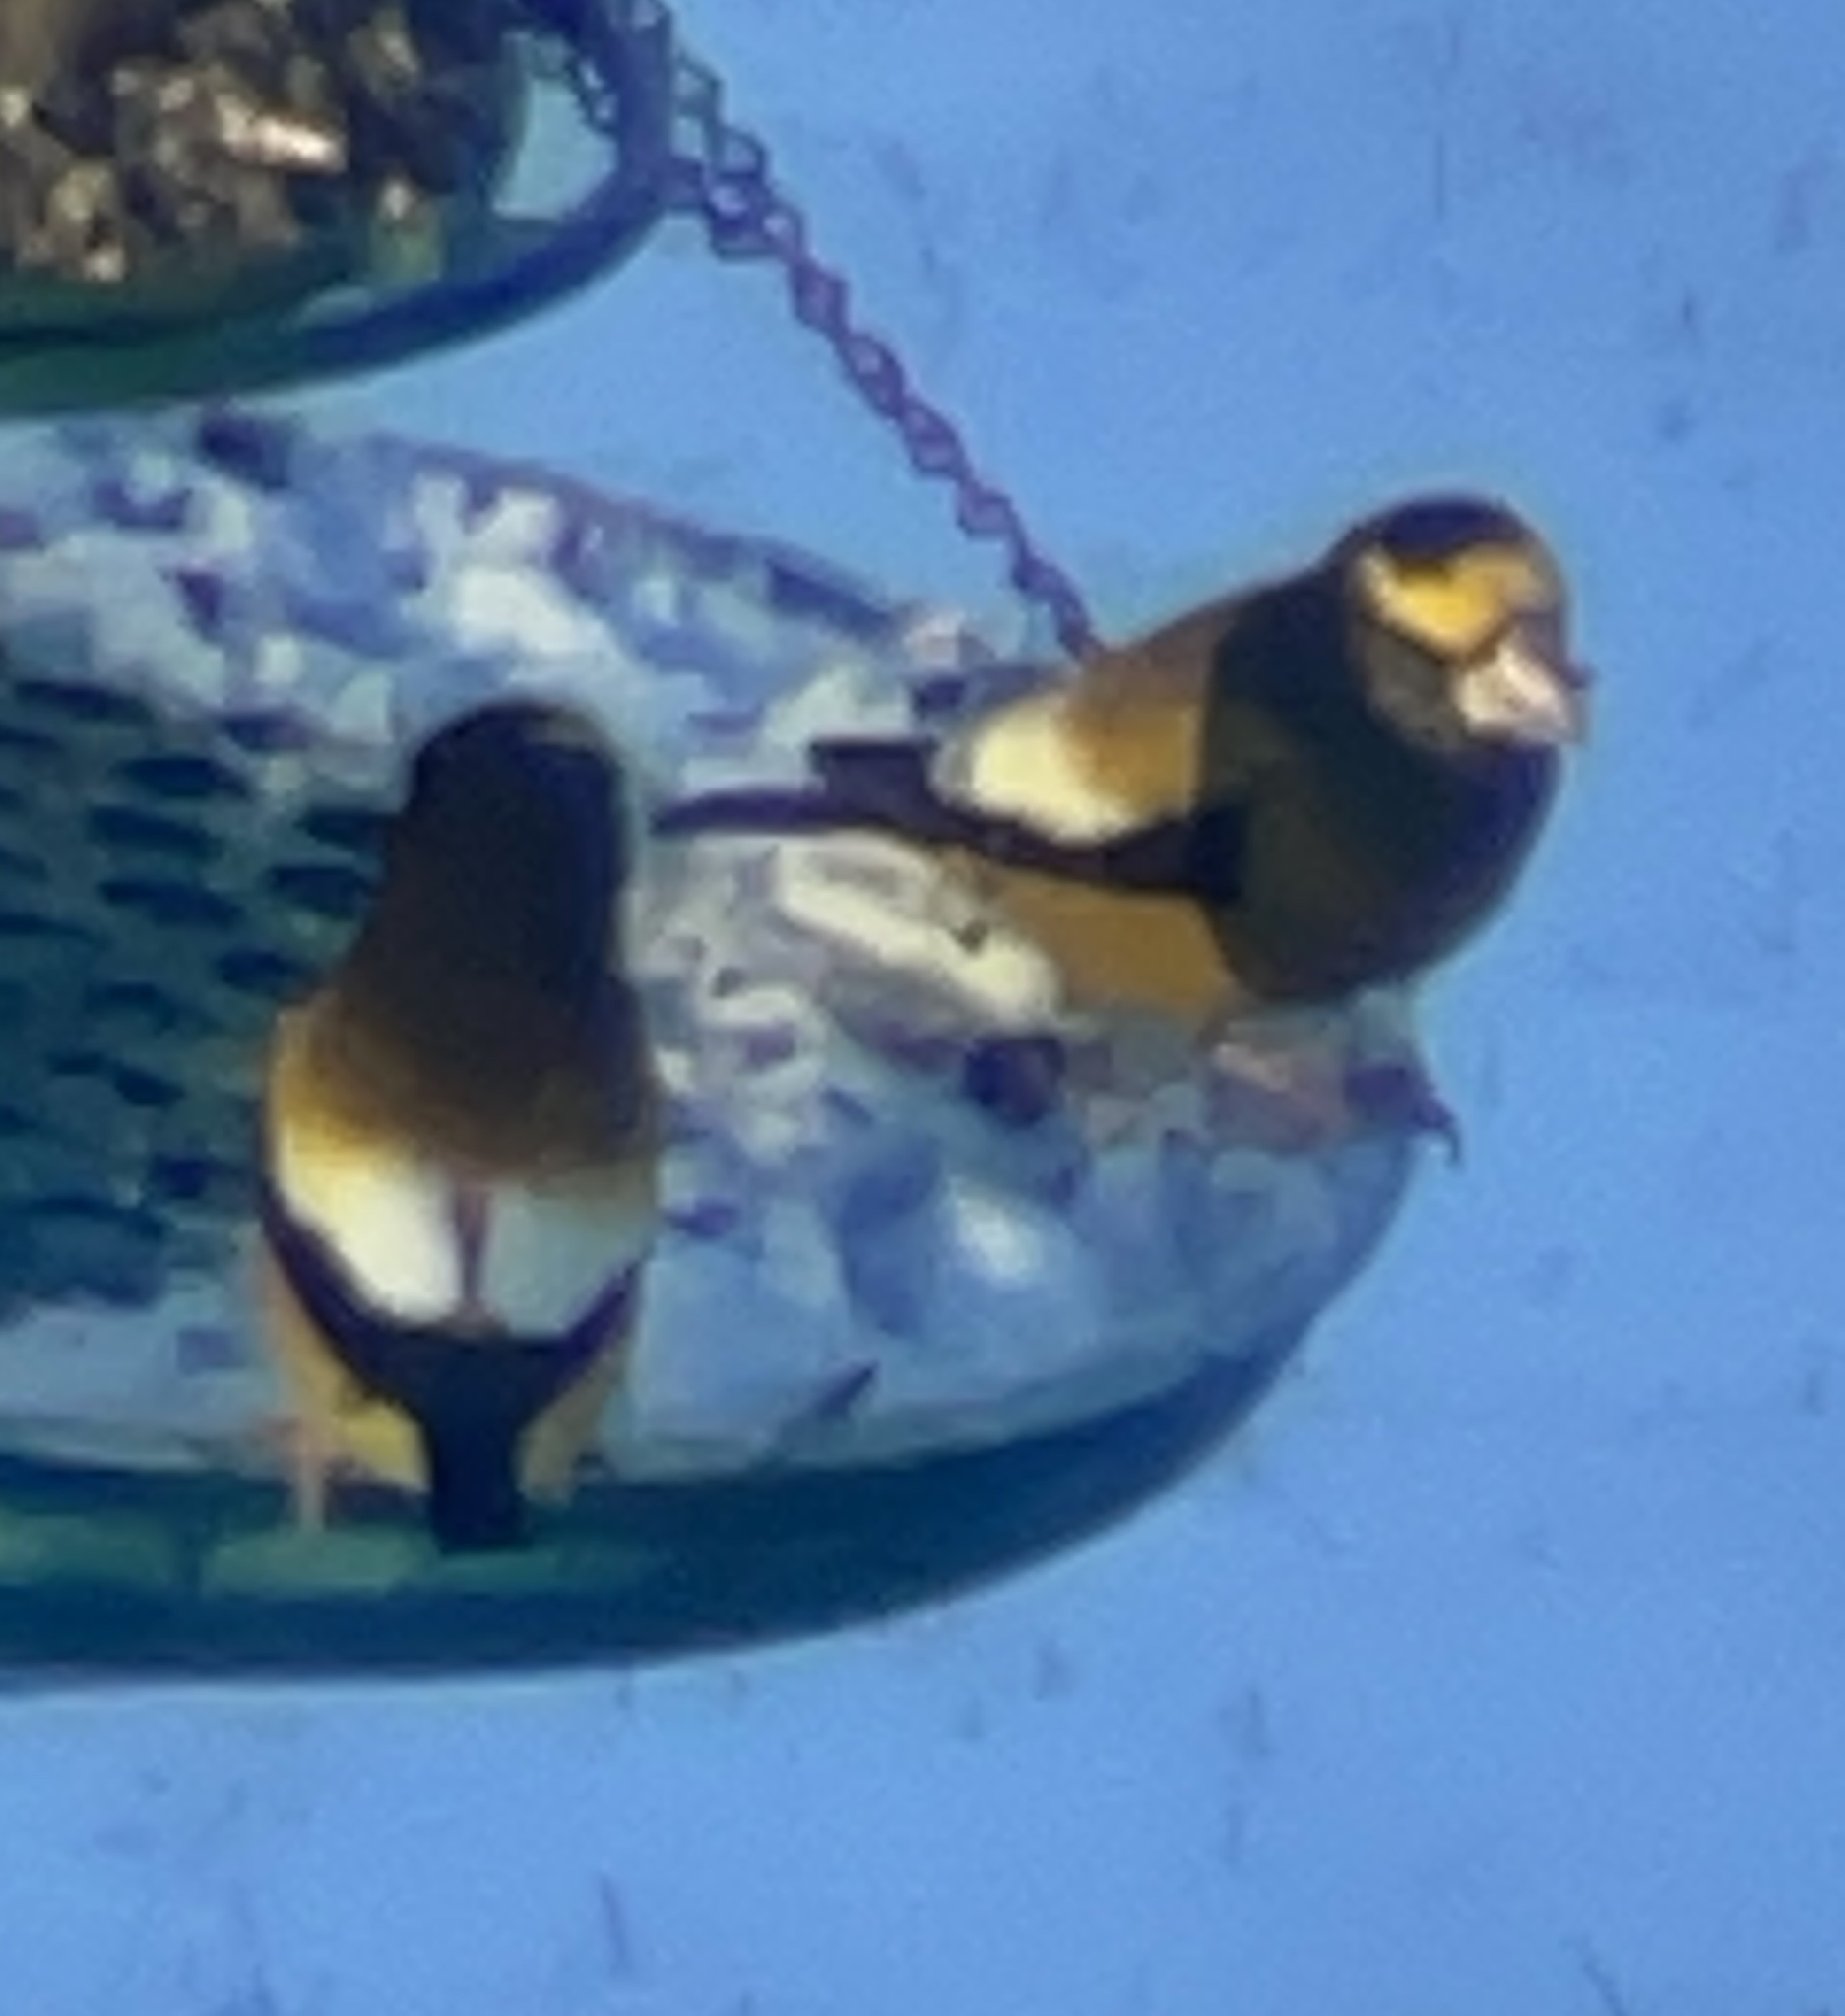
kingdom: Animalia
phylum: Chordata
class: Aves
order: Passeriformes
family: Fringillidae
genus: Hesperiphona
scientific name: Hesperiphona vespertina
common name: Evening grosbeak
